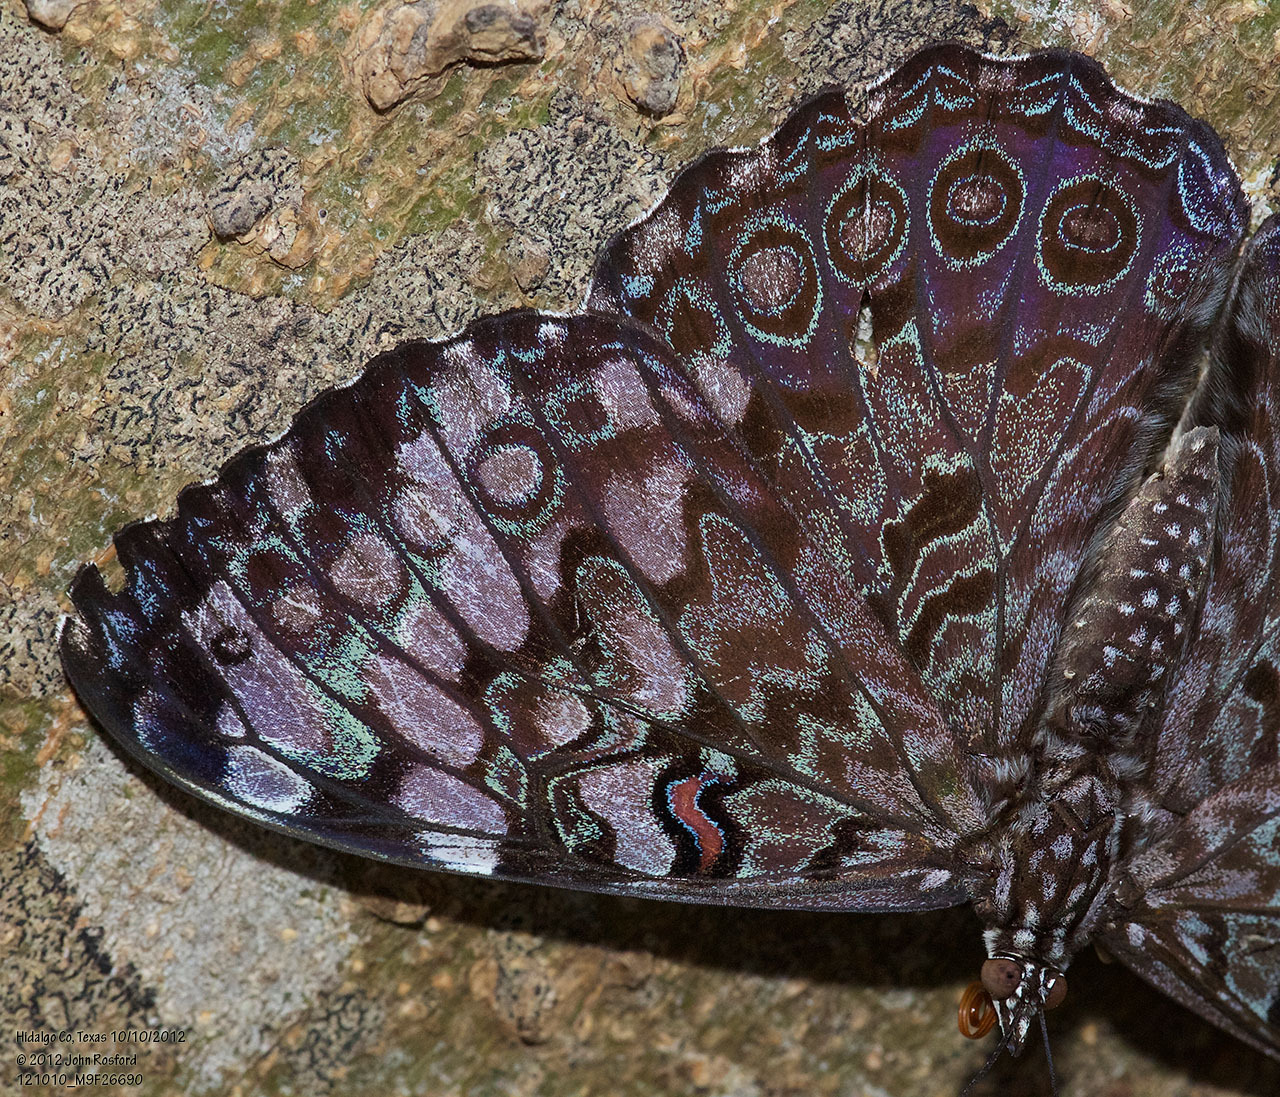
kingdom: Animalia
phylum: Arthropoda
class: Insecta
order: Lepidoptera
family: Nymphalidae
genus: Hamadryas
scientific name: Hamadryas guatemalena
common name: Guatemalan cracker
